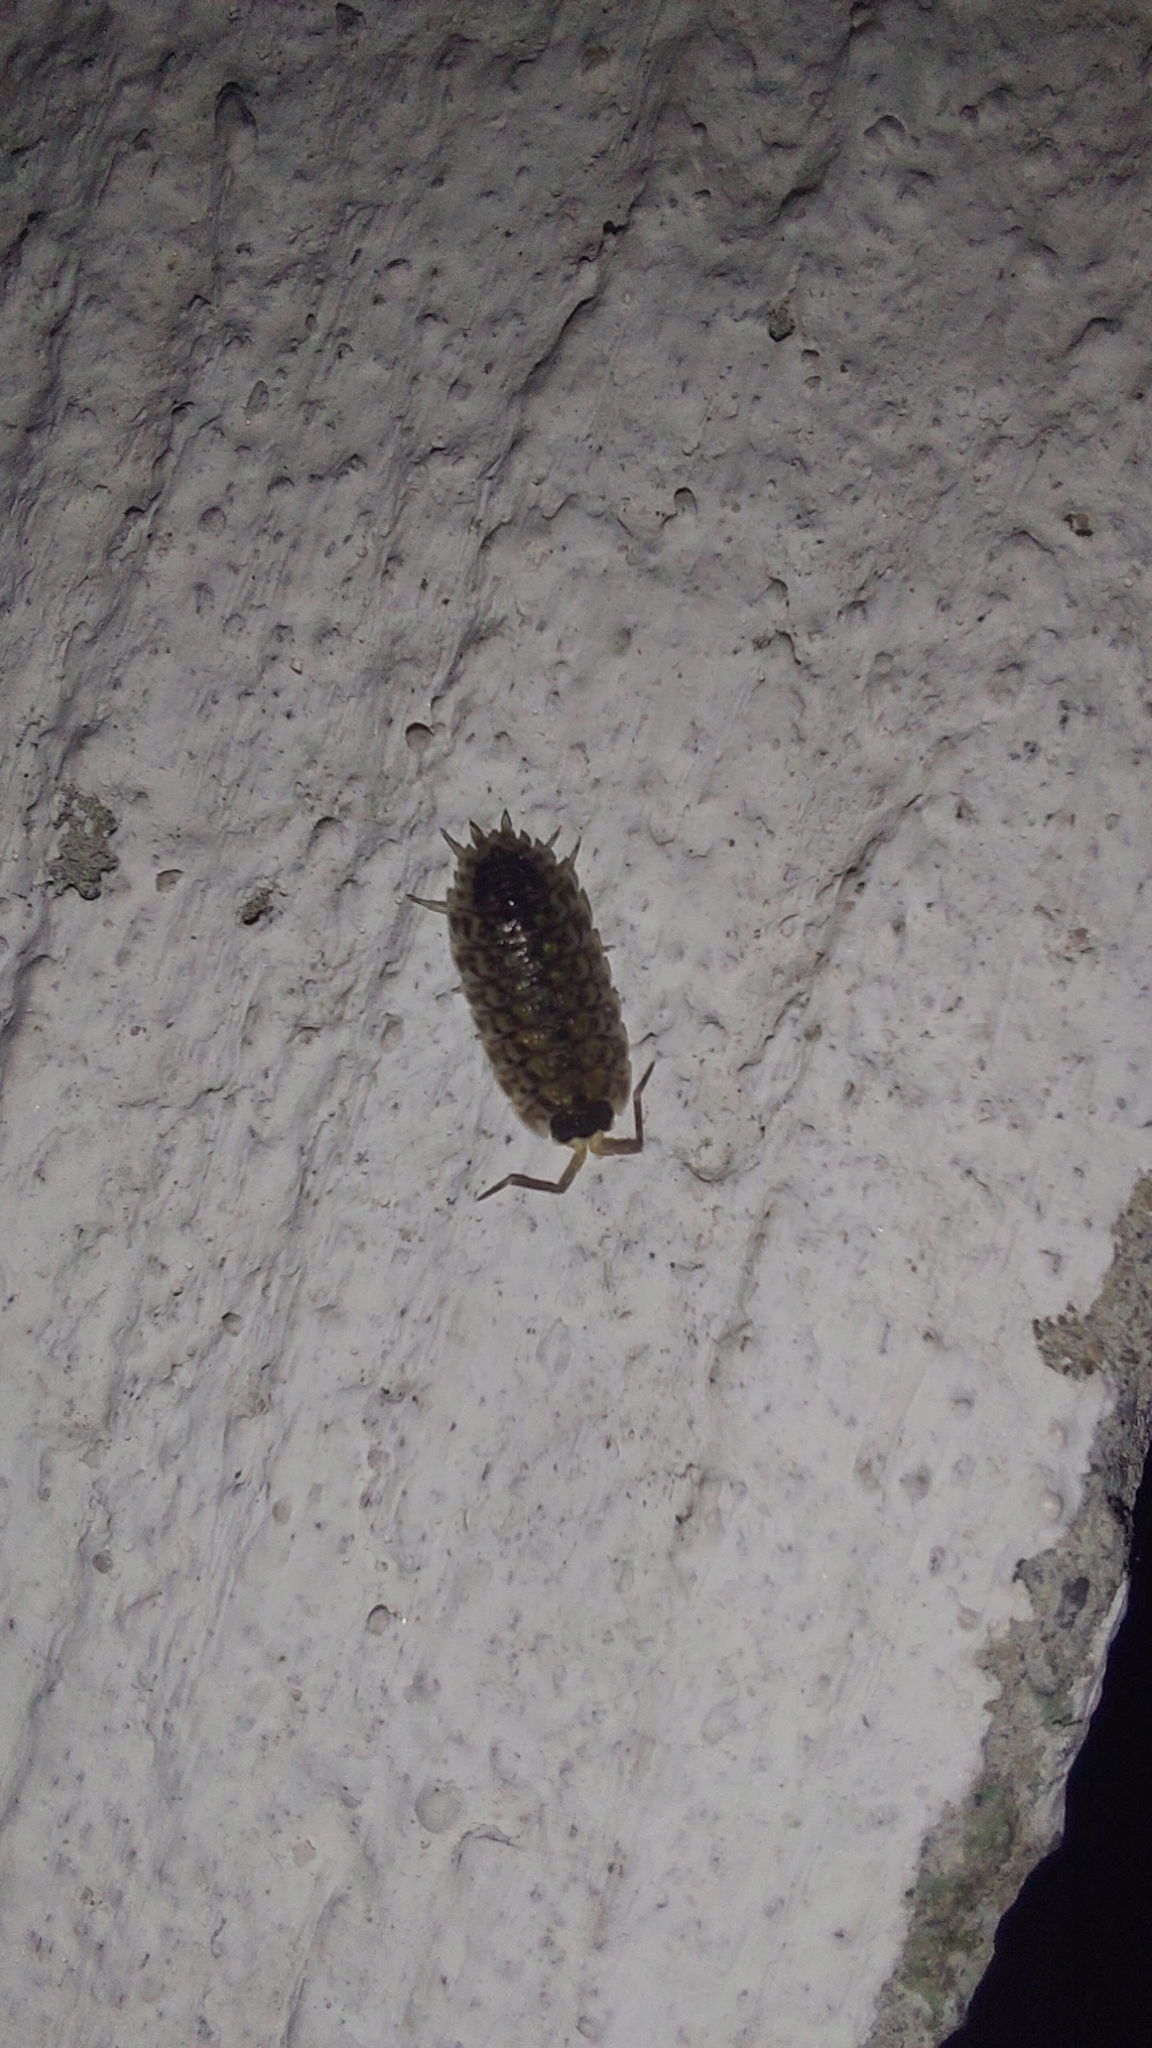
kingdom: Animalia
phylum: Arthropoda
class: Malacostraca
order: Isopoda
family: Porcellionidae
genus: Porcellio
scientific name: Porcellio spinicornis
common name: Painted woodlouse
